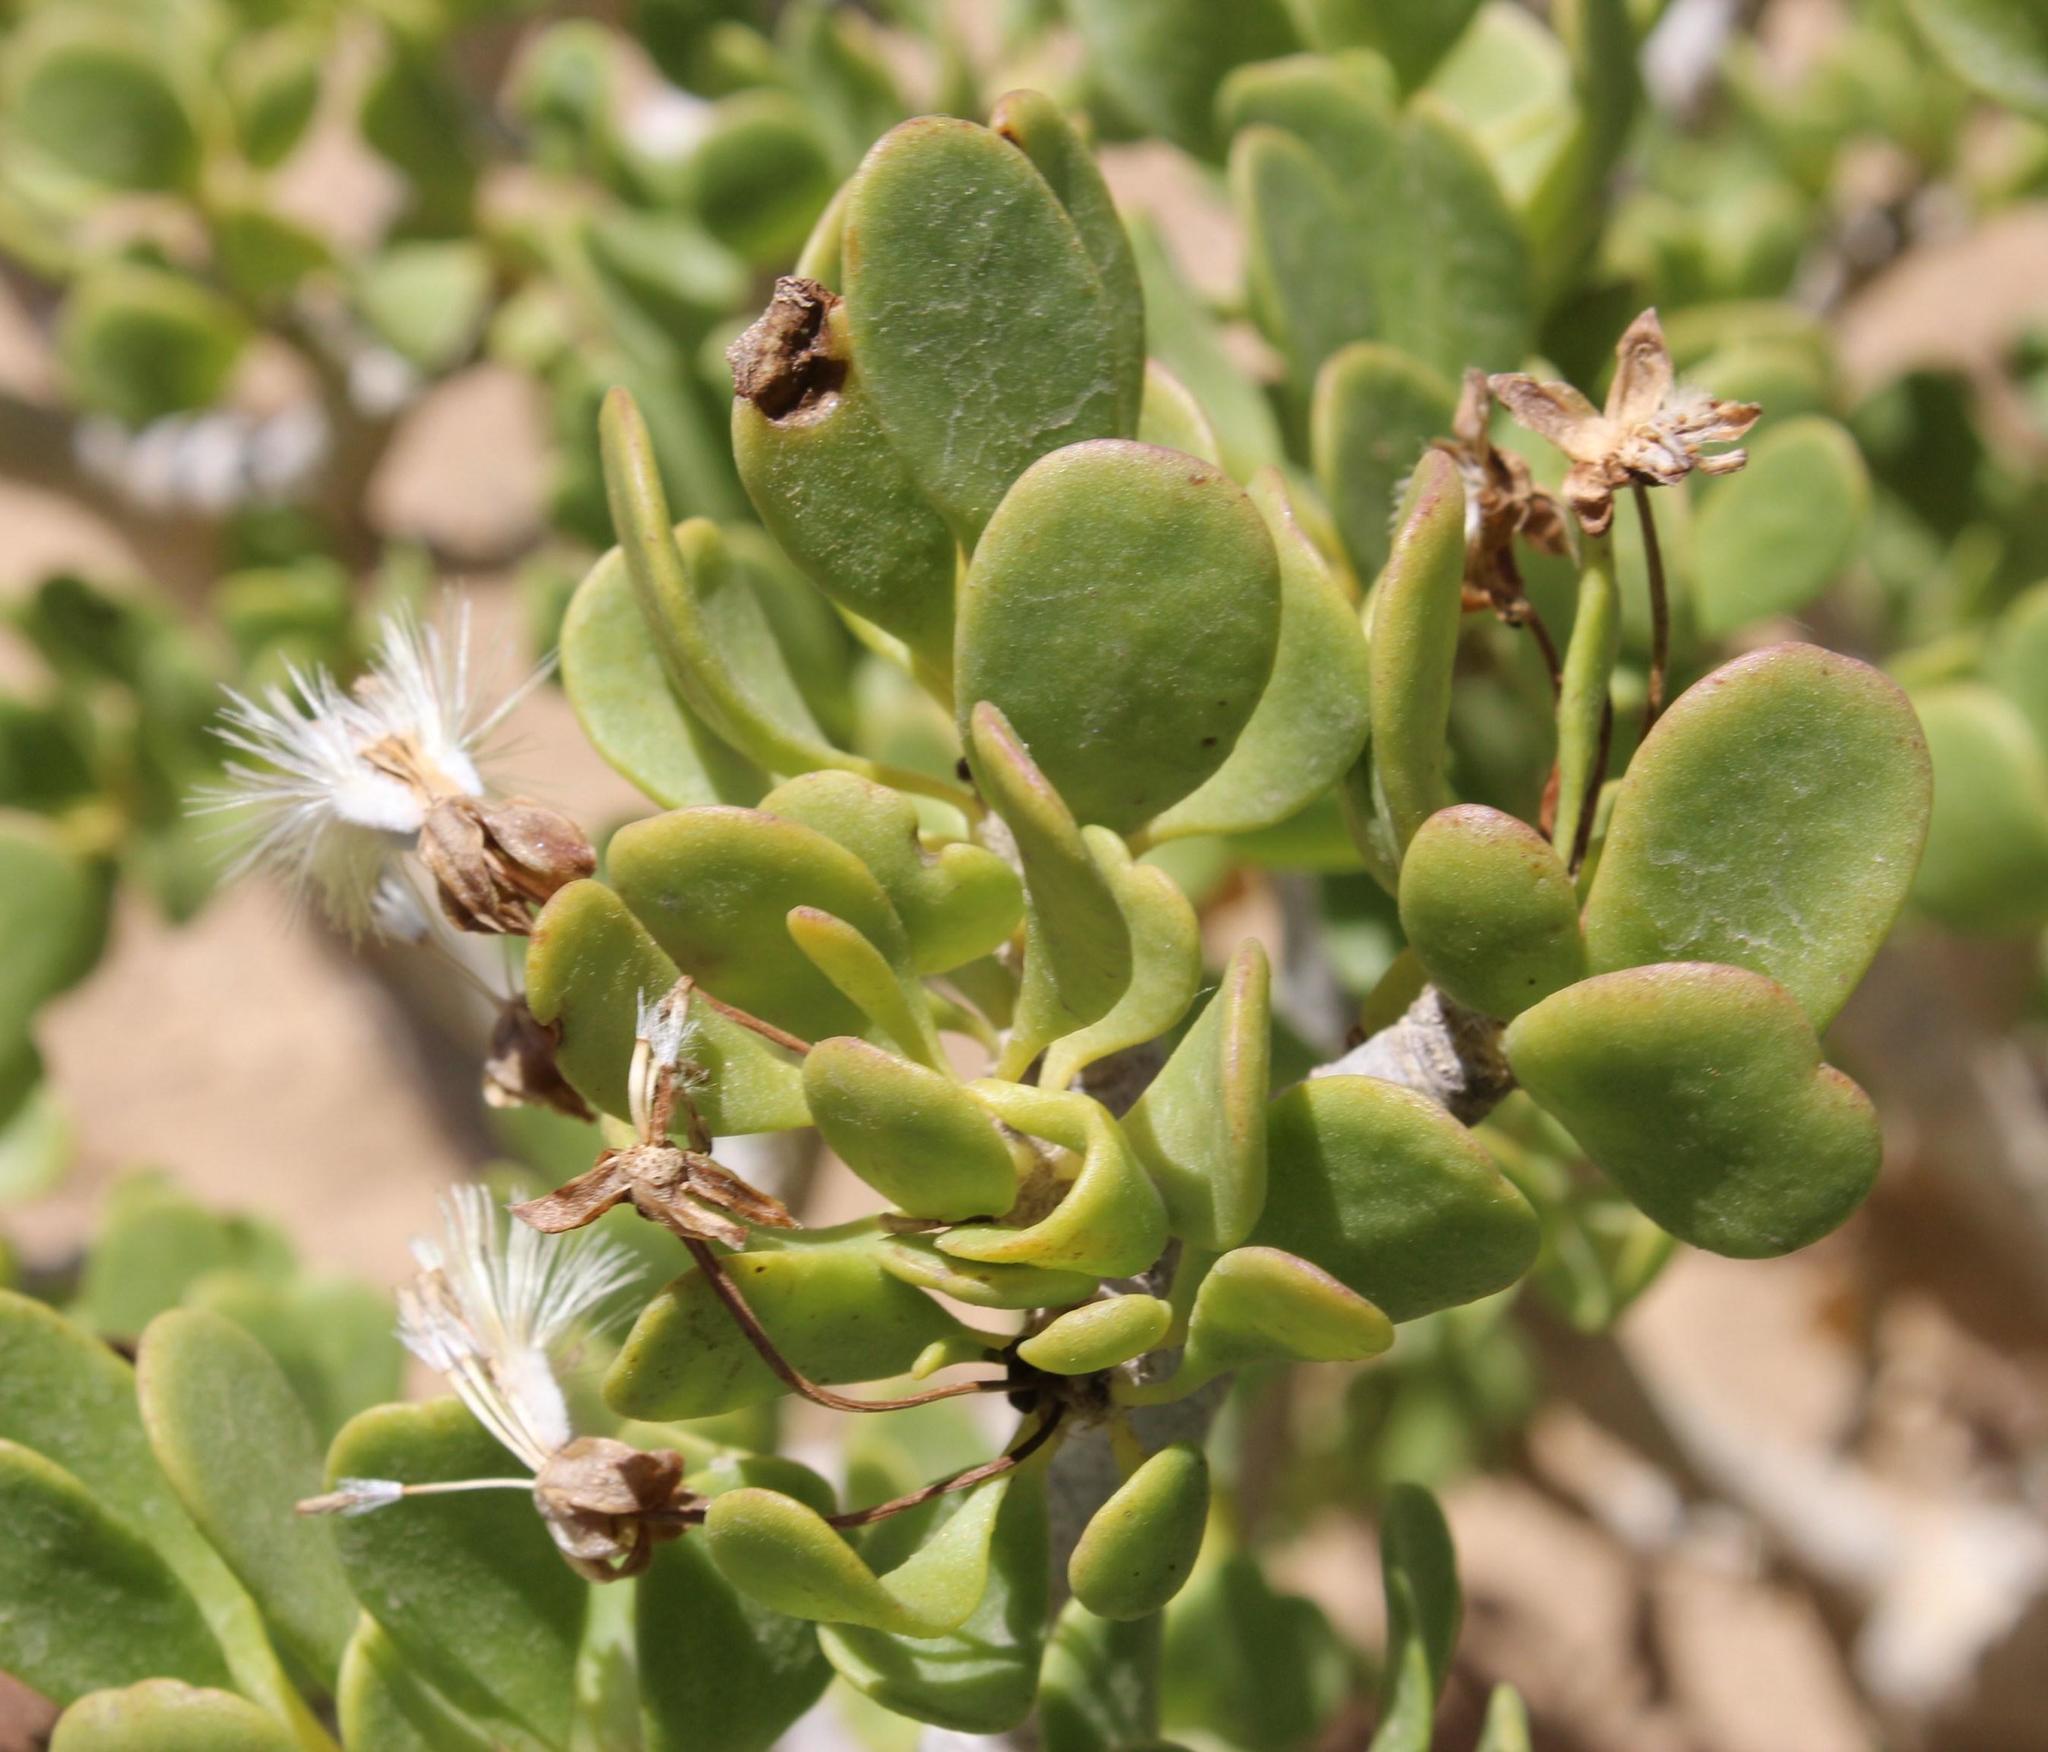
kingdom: Plantae
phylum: Tracheophyta
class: Magnoliopsida
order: Asterales
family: Asteraceae
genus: Othonna
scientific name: Othonna furcata
